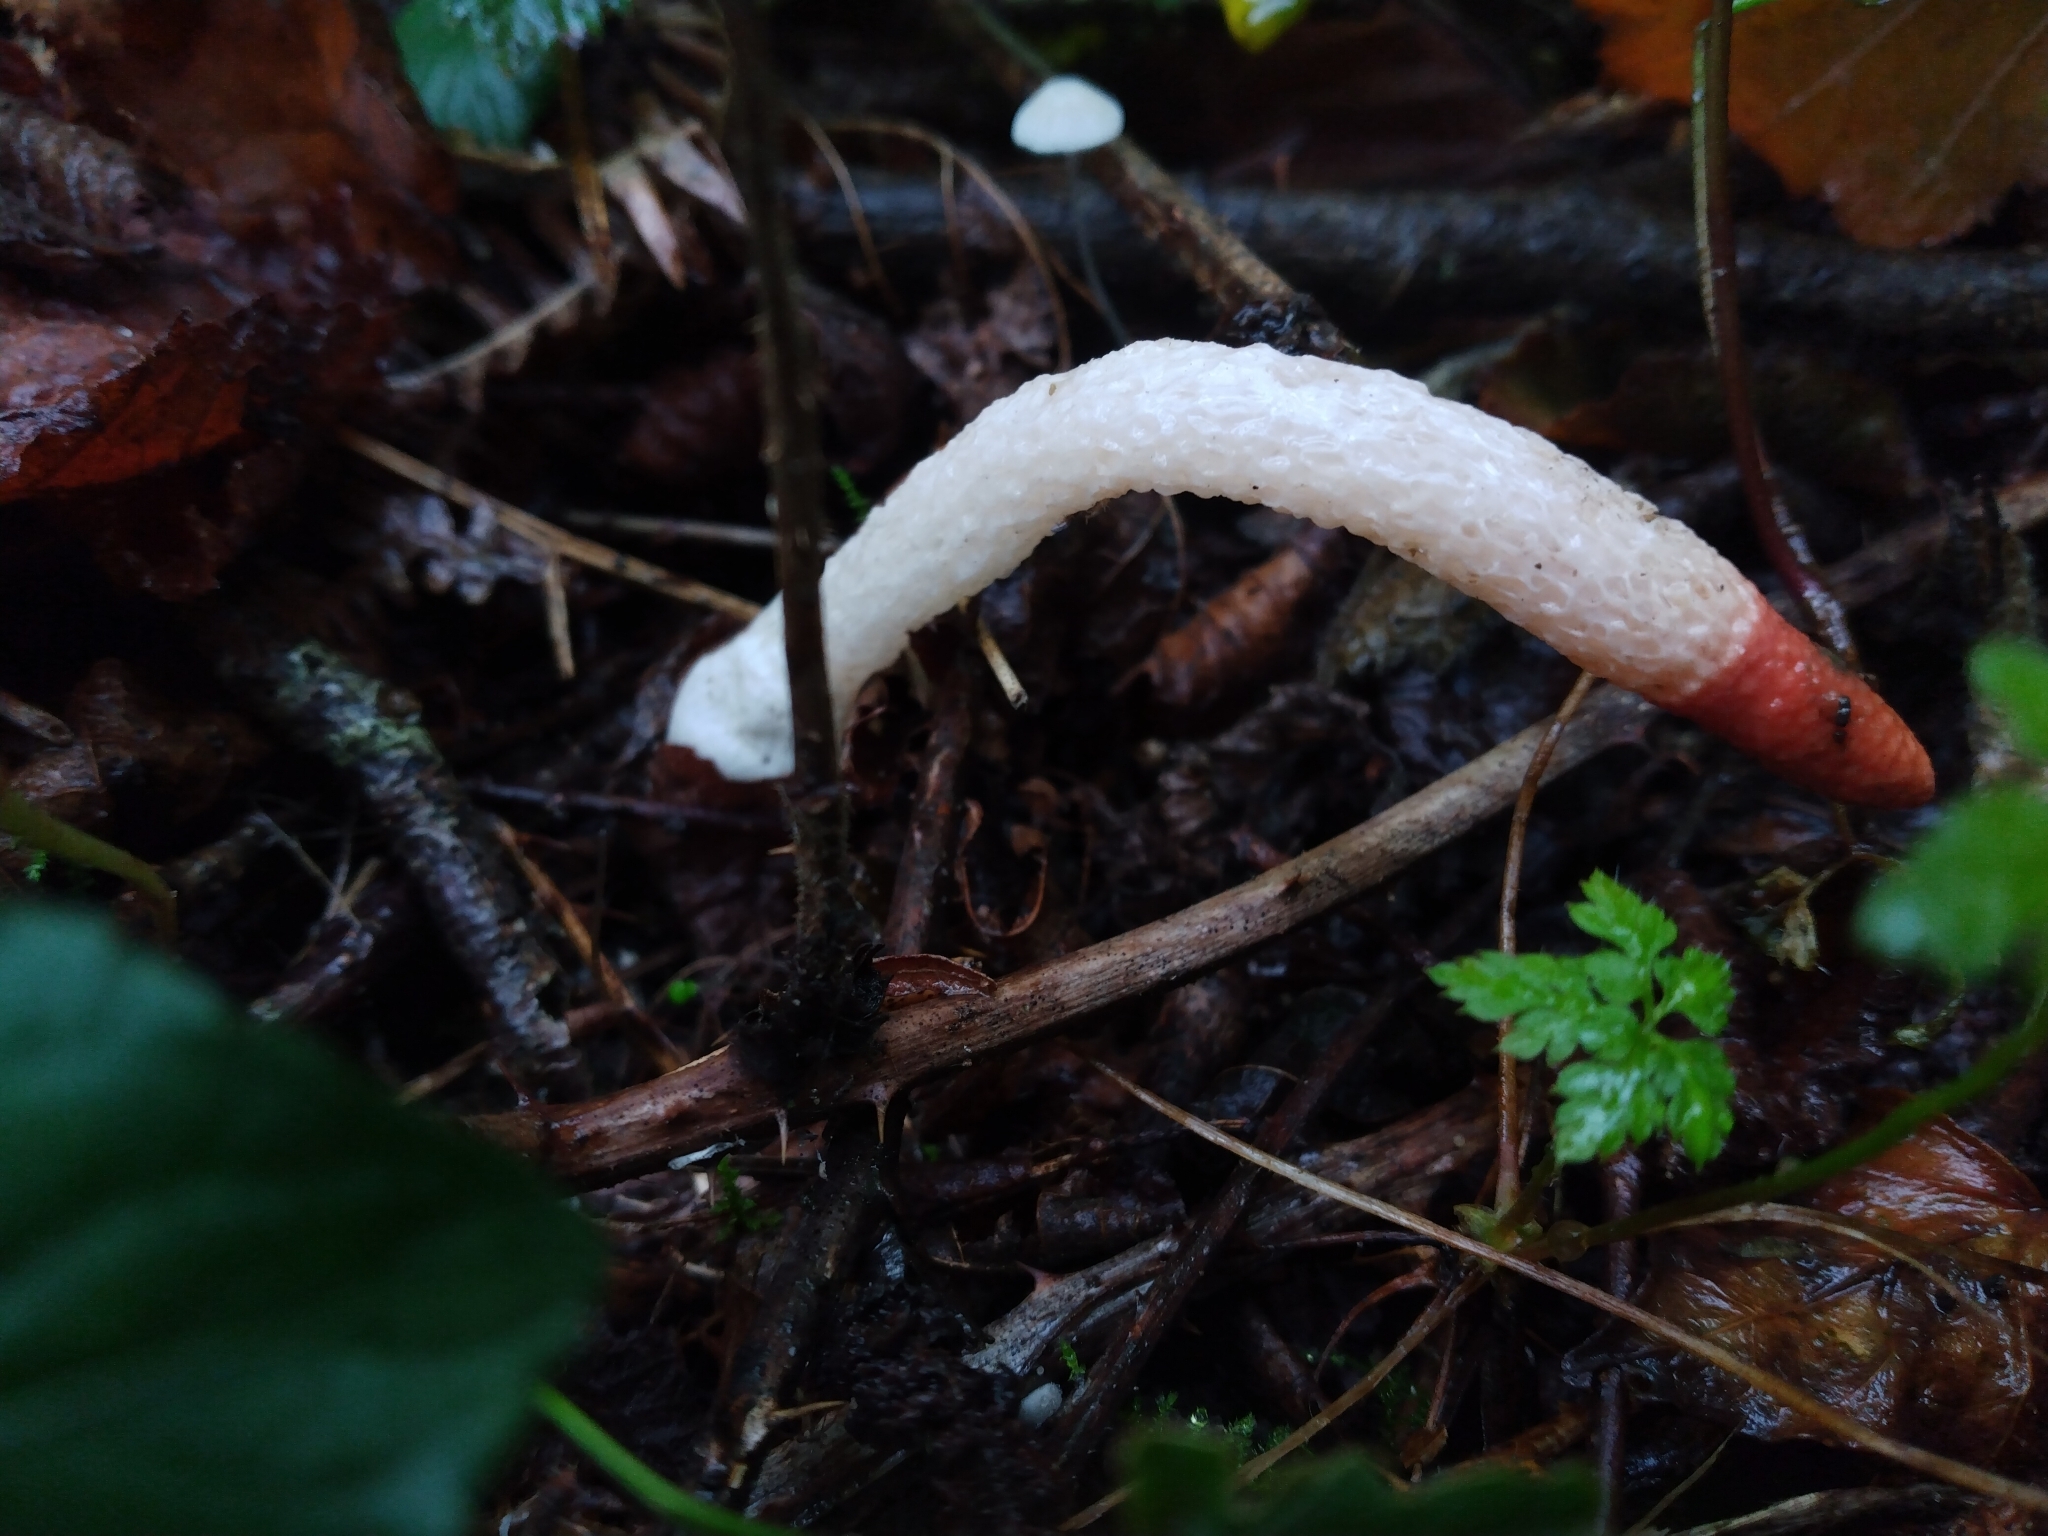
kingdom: Fungi
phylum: Basidiomycota
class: Agaricomycetes
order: Phallales
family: Phallaceae
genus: Mutinus
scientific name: Mutinus caninus
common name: Dog stinkhorn
